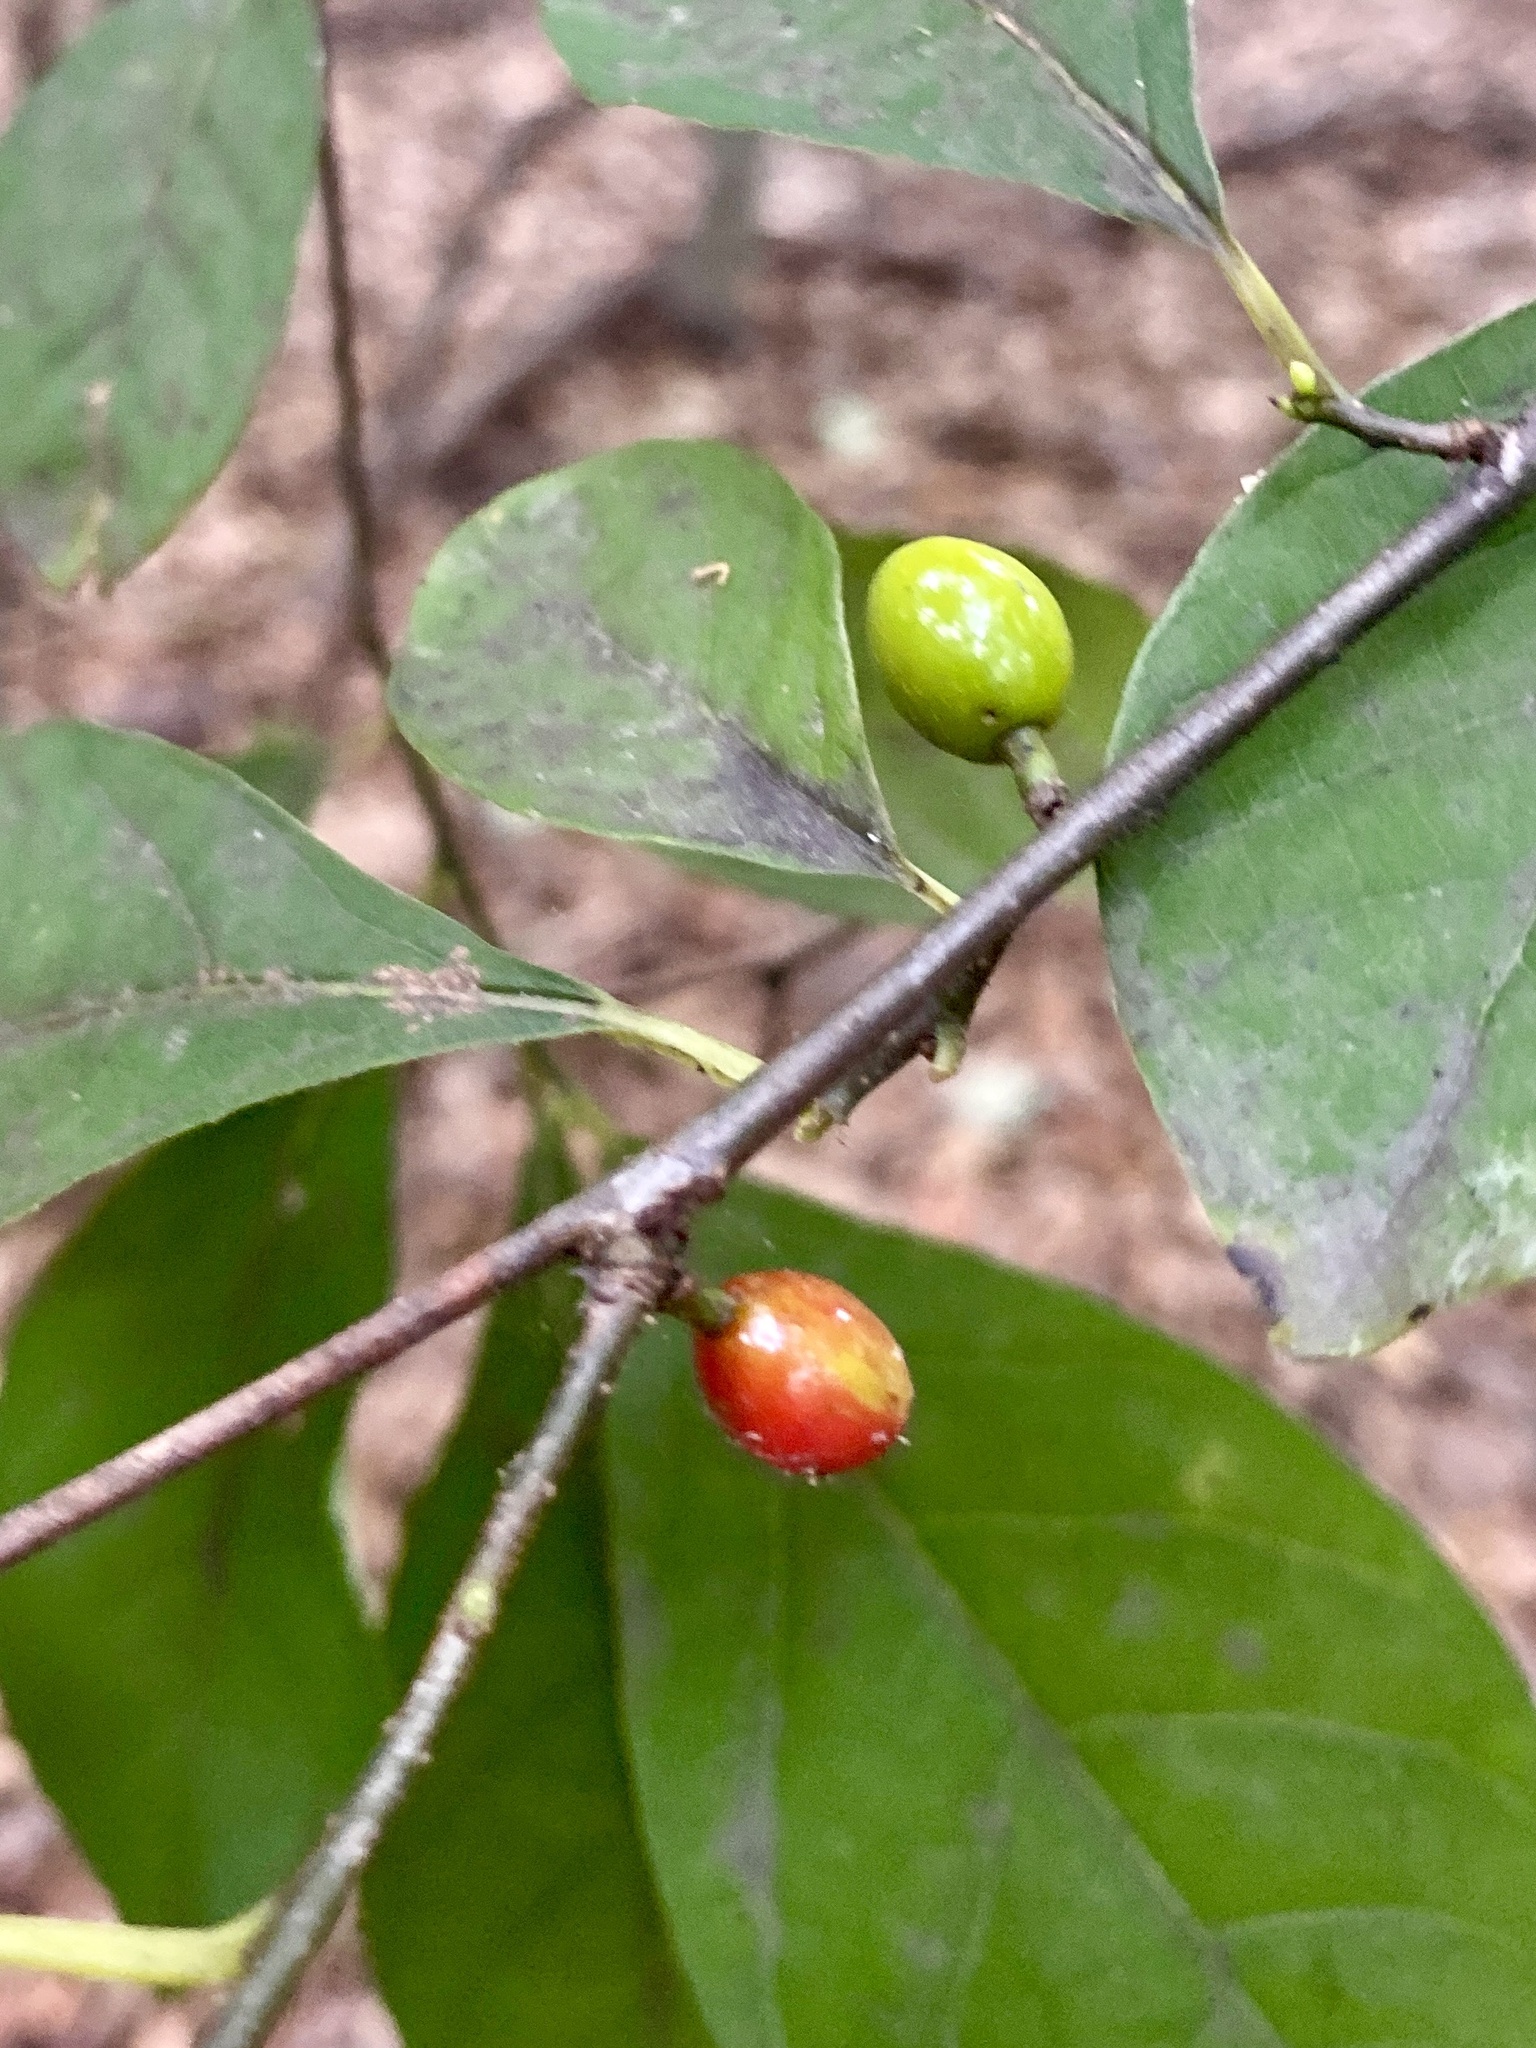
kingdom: Plantae
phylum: Tracheophyta
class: Magnoliopsida
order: Laurales
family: Lauraceae
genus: Lindera
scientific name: Lindera benzoin
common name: Spicebush
